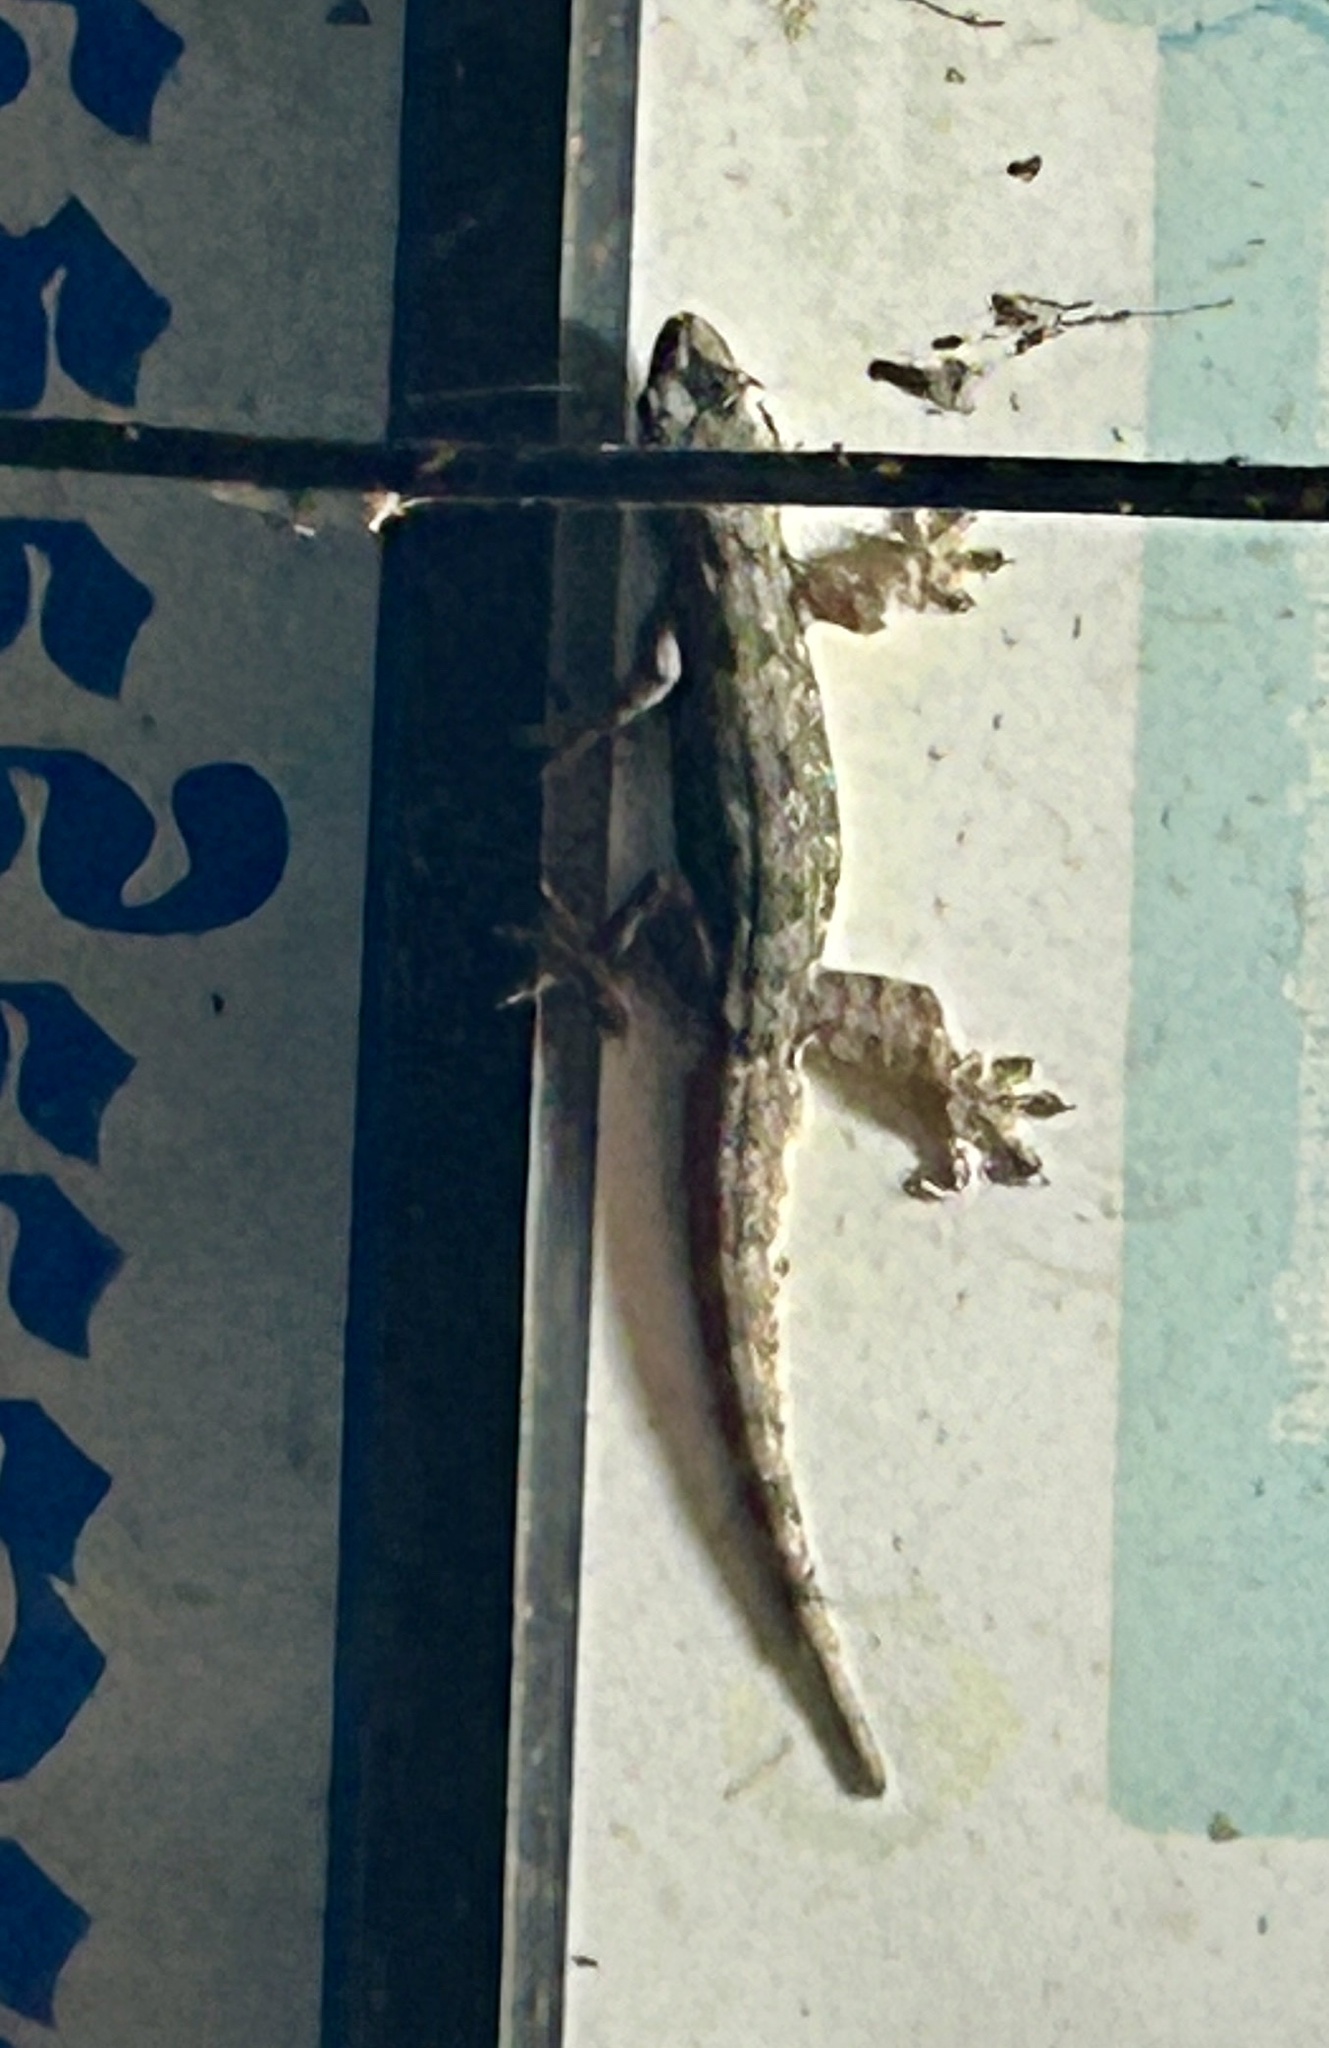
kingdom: Animalia
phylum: Chordata
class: Squamata
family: Gekkonidae
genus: Hemidactylus
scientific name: Hemidactylus platyurus
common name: Flat-tailed house gecko
